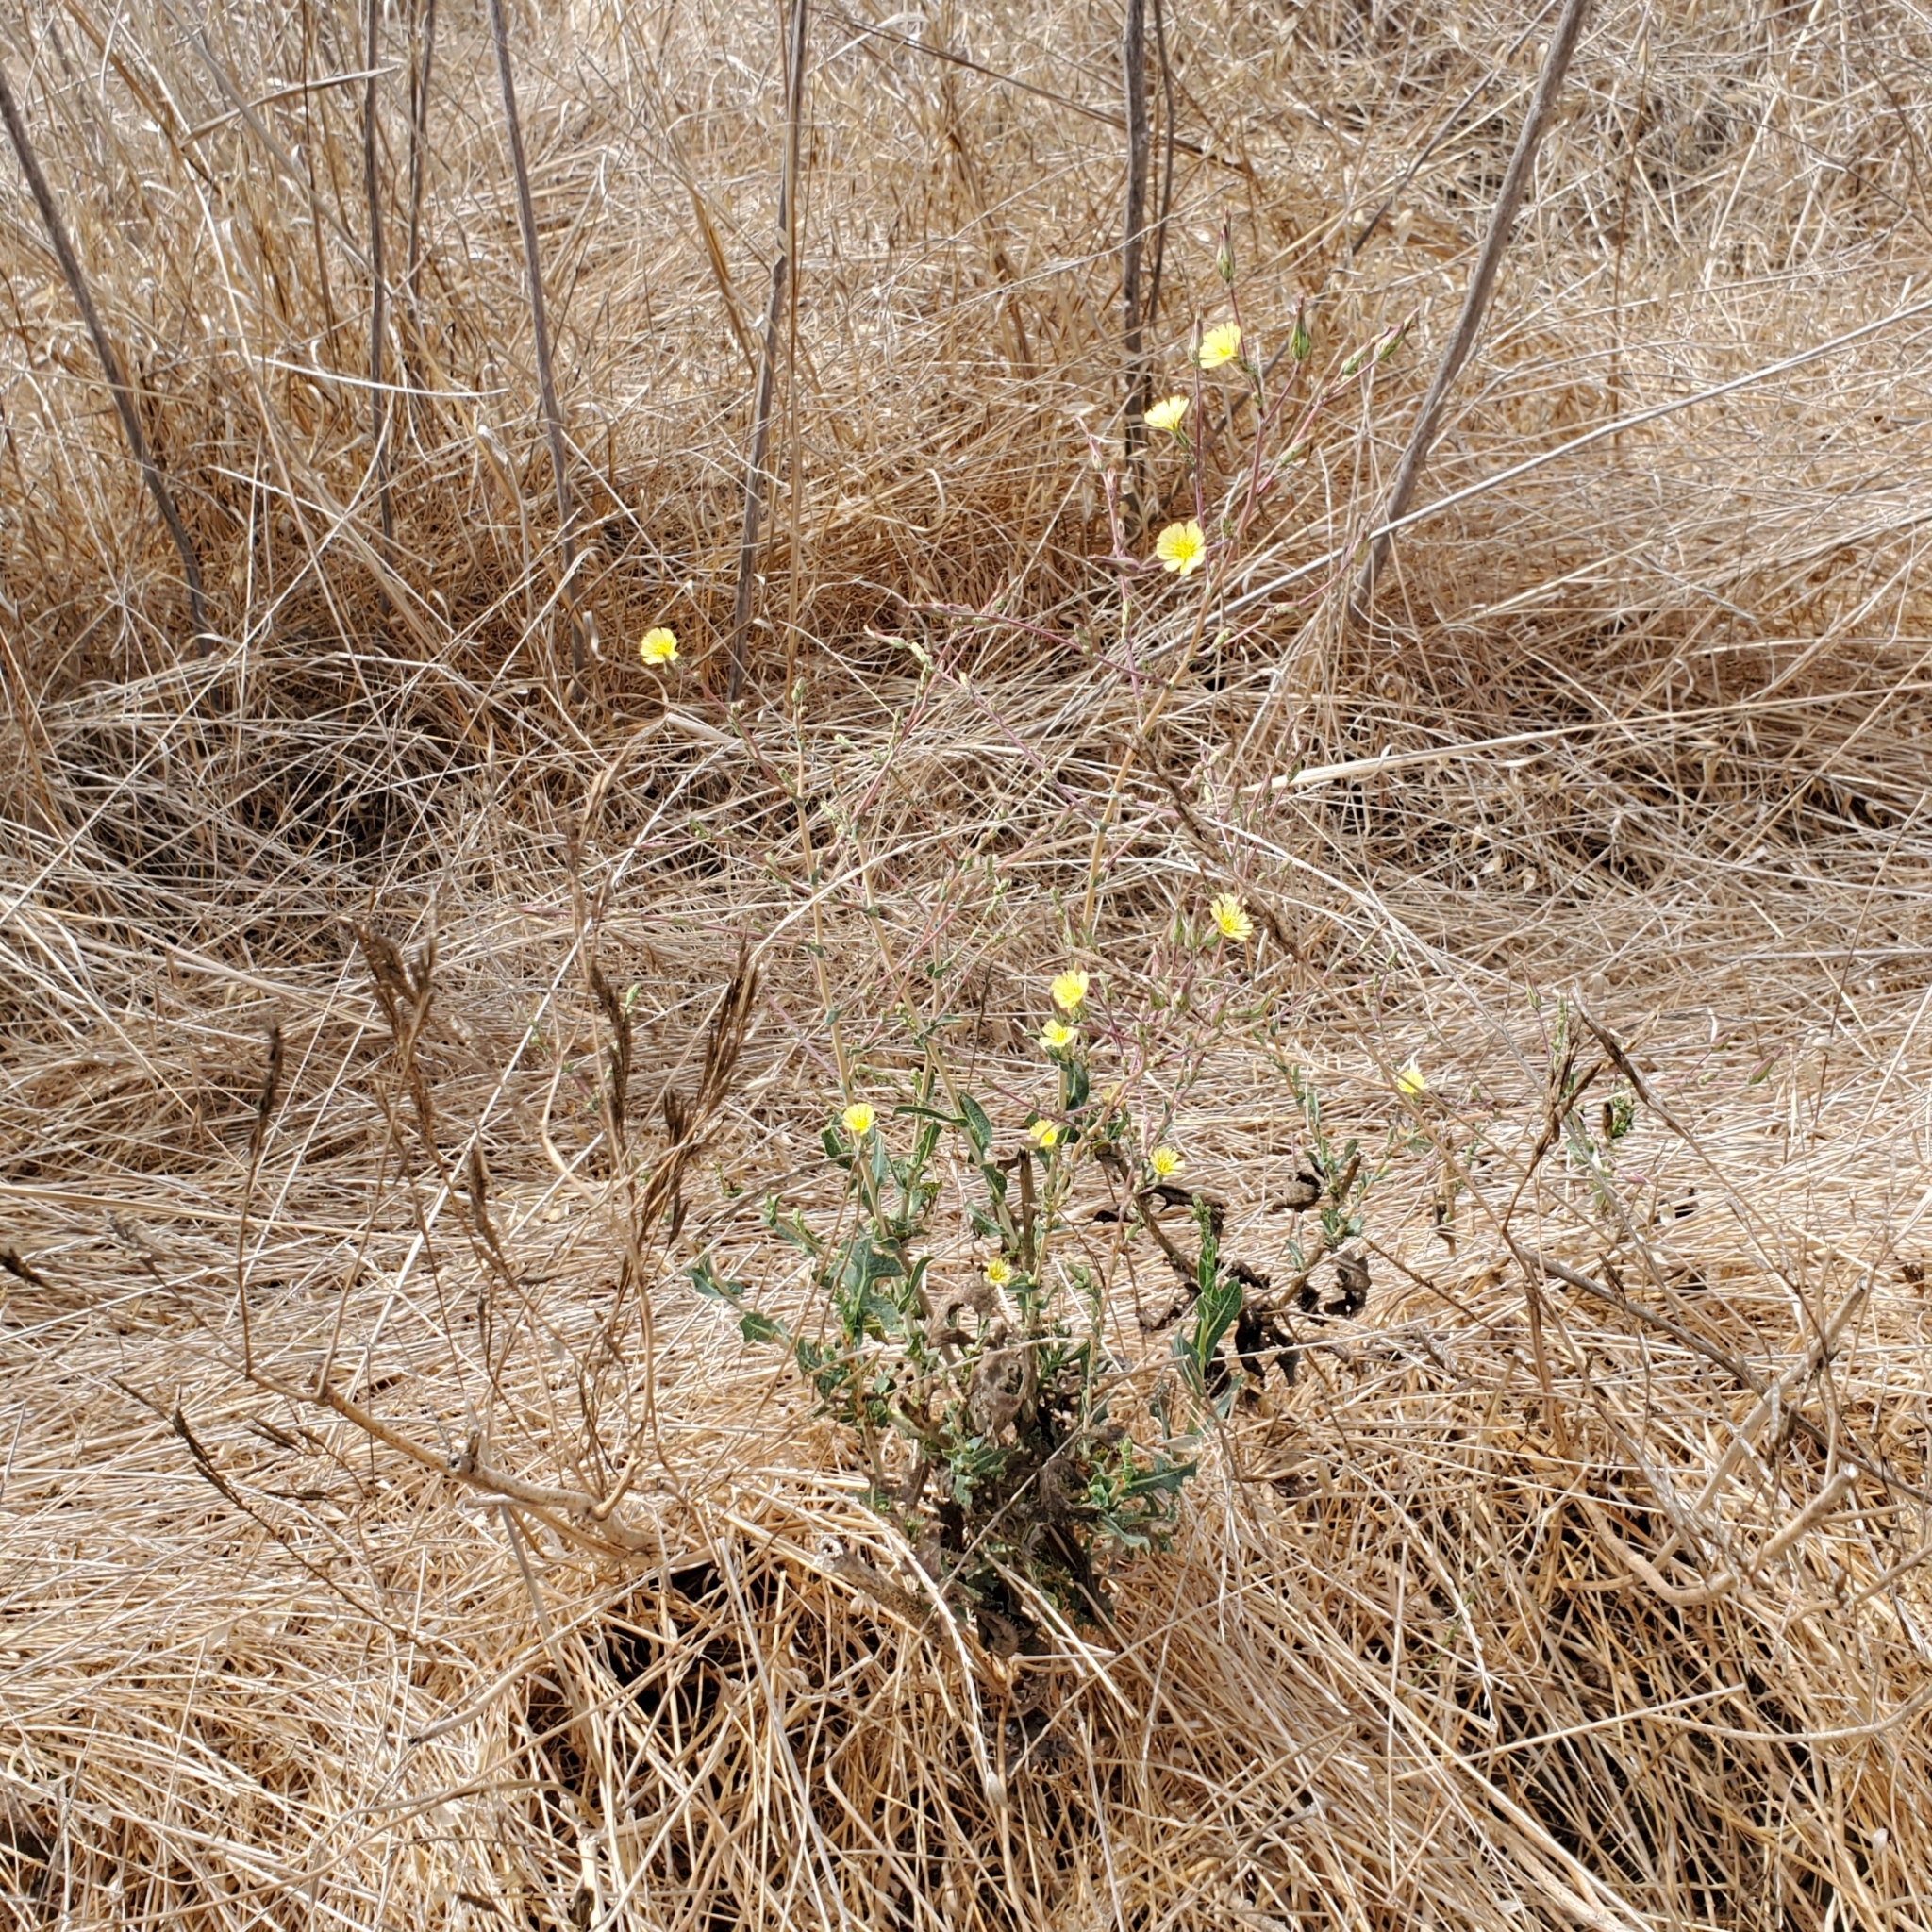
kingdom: Plantae
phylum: Tracheophyta
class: Magnoliopsida
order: Asterales
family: Asteraceae
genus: Lactuca
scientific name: Lactuca serriola
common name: Prickly lettuce
